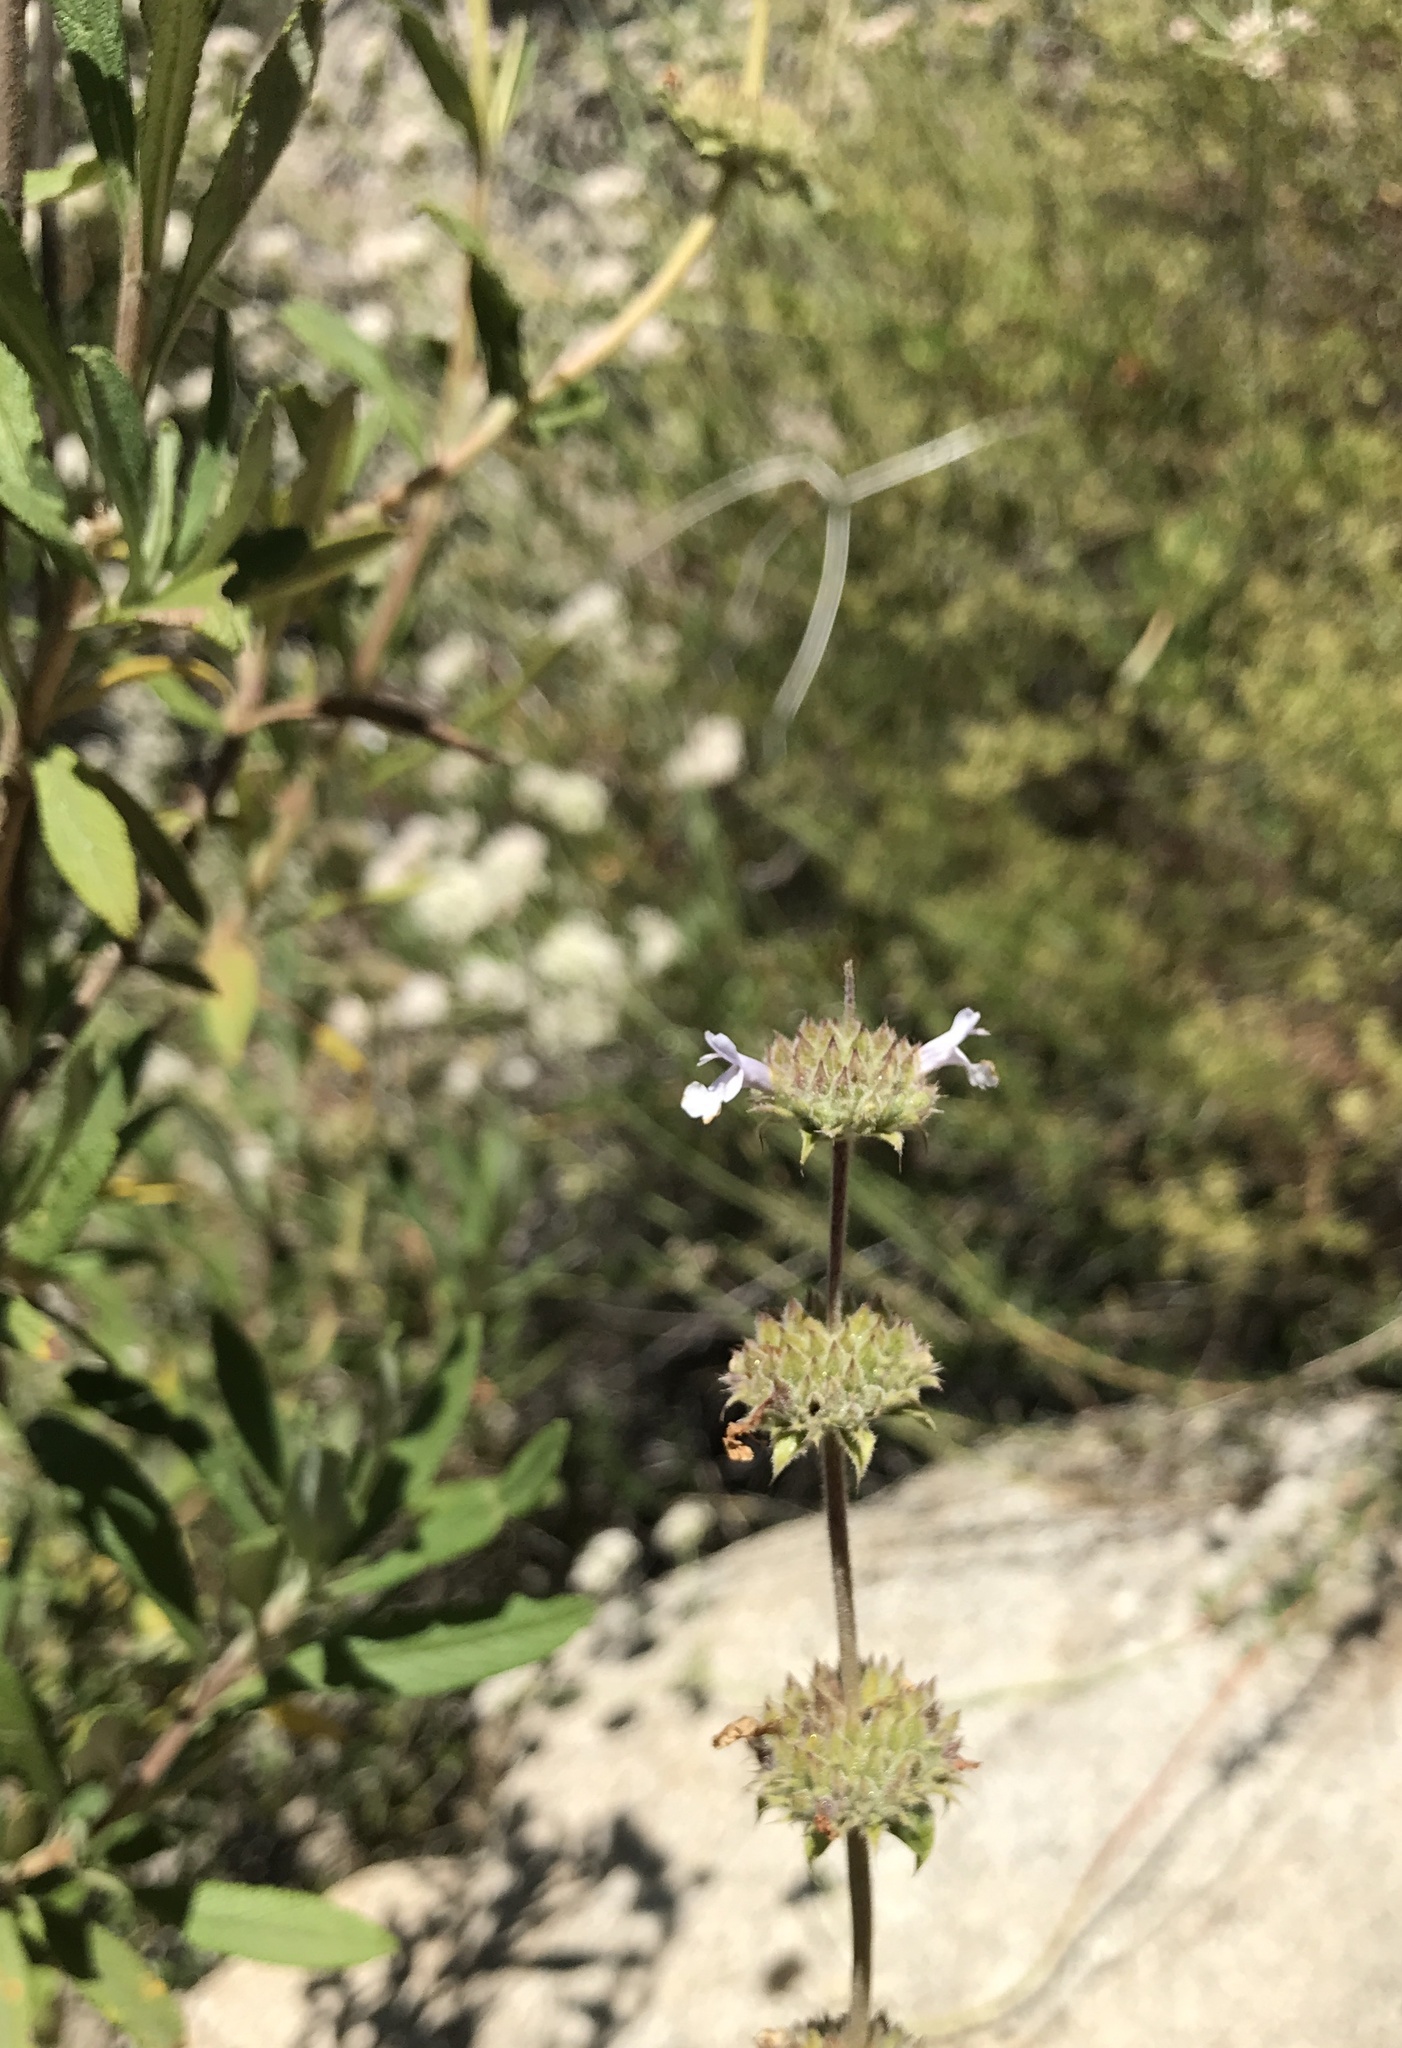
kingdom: Plantae
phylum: Tracheophyta
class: Magnoliopsida
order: Lamiales
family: Lamiaceae
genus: Salvia
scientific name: Salvia mellifera
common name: Black sage
